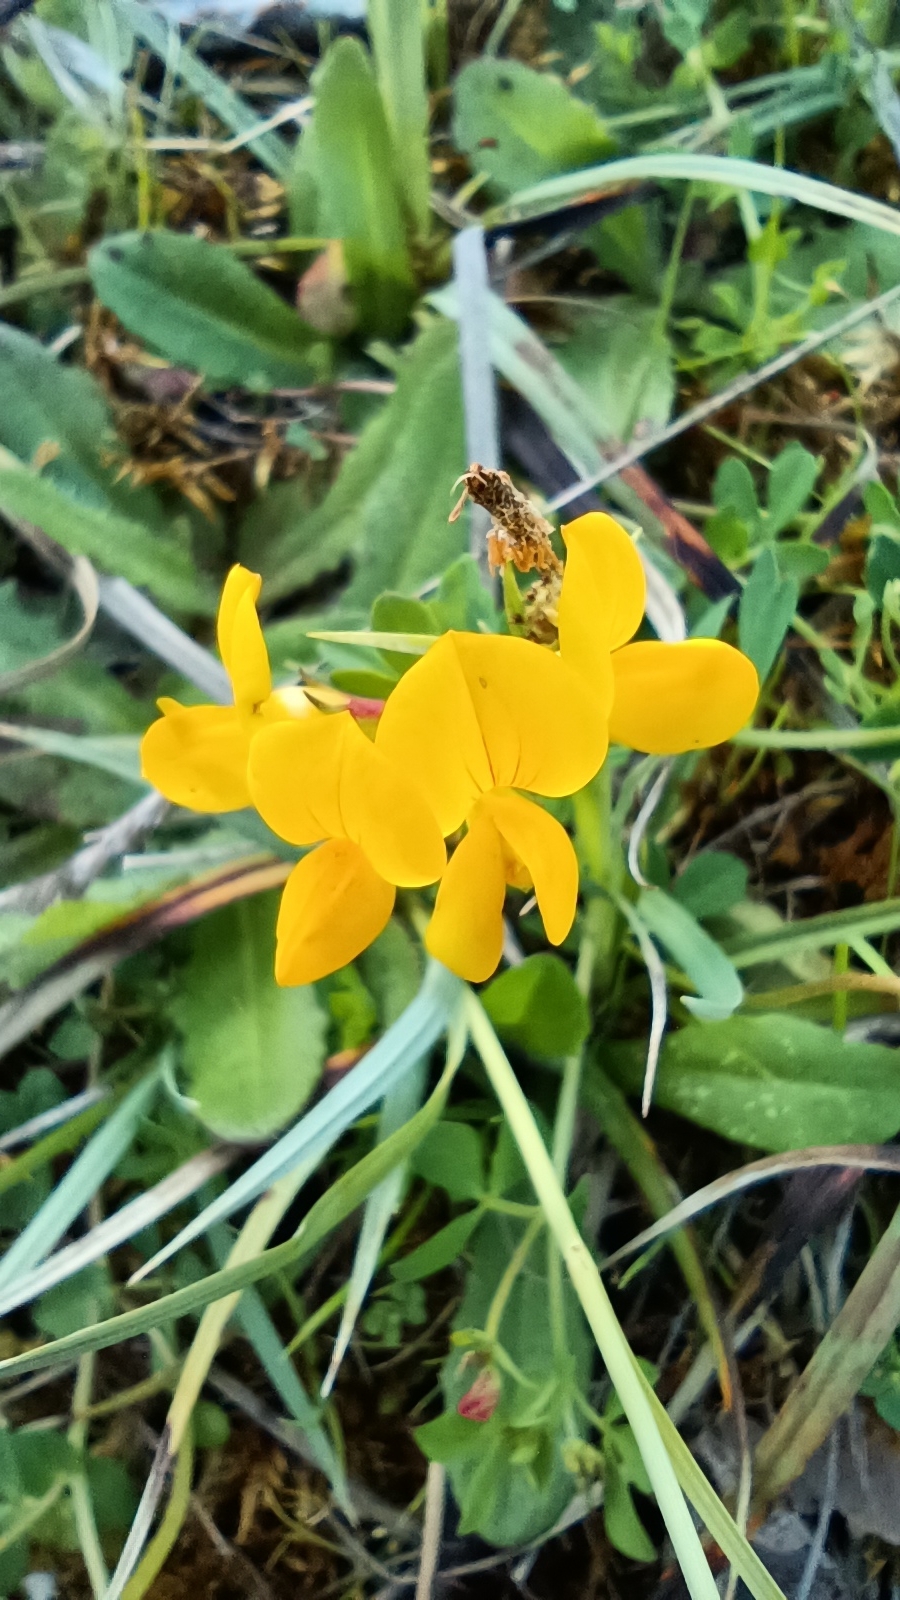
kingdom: Plantae
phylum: Tracheophyta
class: Magnoliopsida
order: Fabales
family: Fabaceae
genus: Lotus
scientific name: Lotus corniculatus
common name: Common bird's-foot-trefoil
